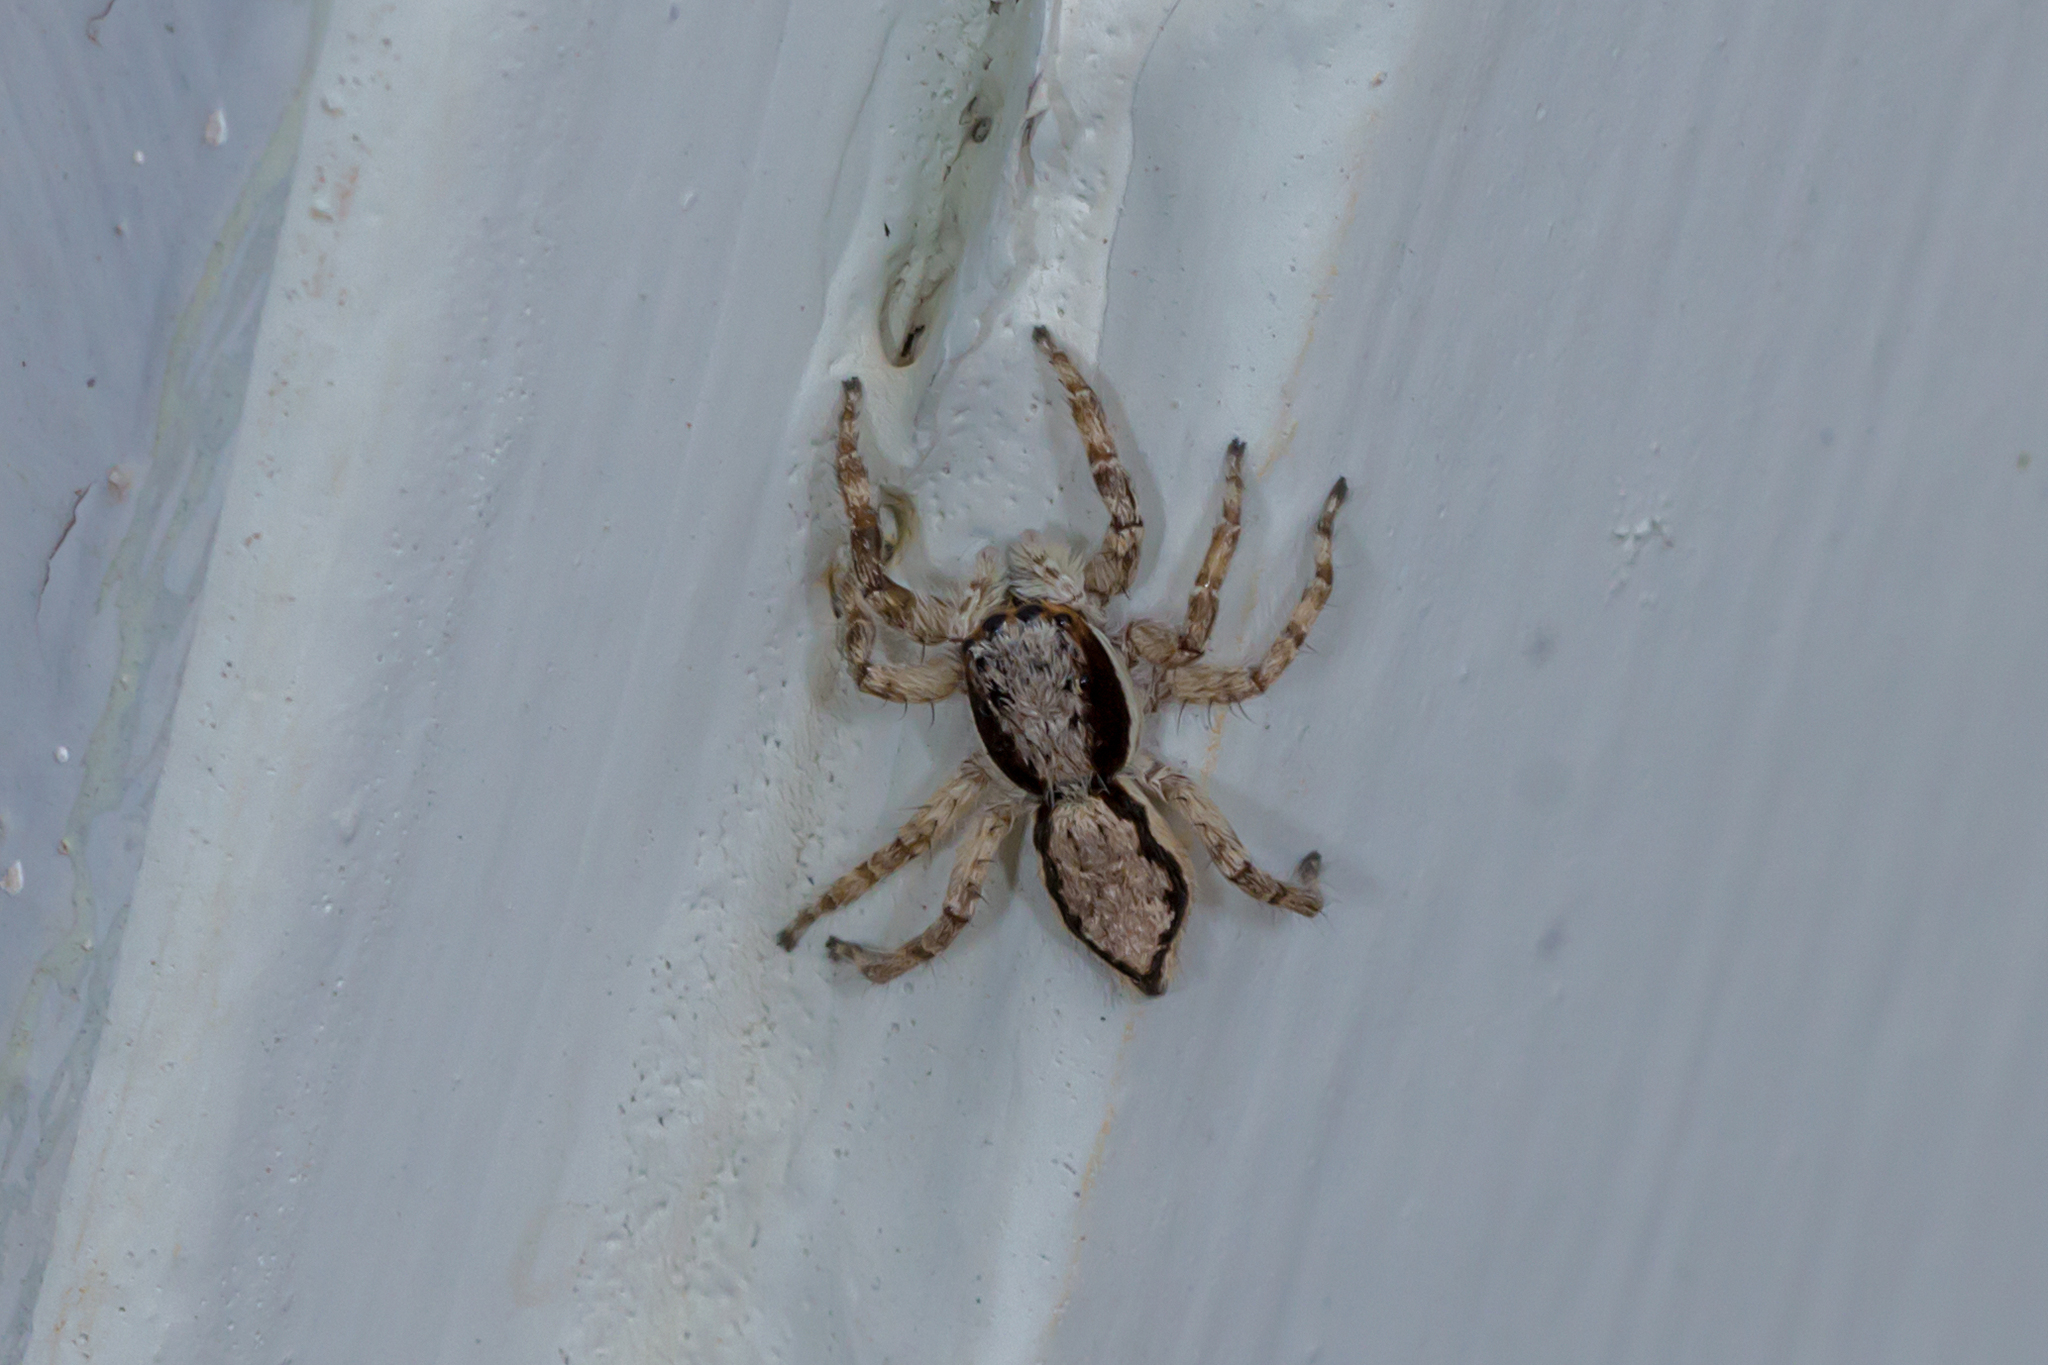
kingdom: Animalia
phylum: Arthropoda
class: Arachnida
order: Araneae
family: Salticidae
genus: Menemerus
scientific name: Menemerus bivittatus
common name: Gray wall jumper
